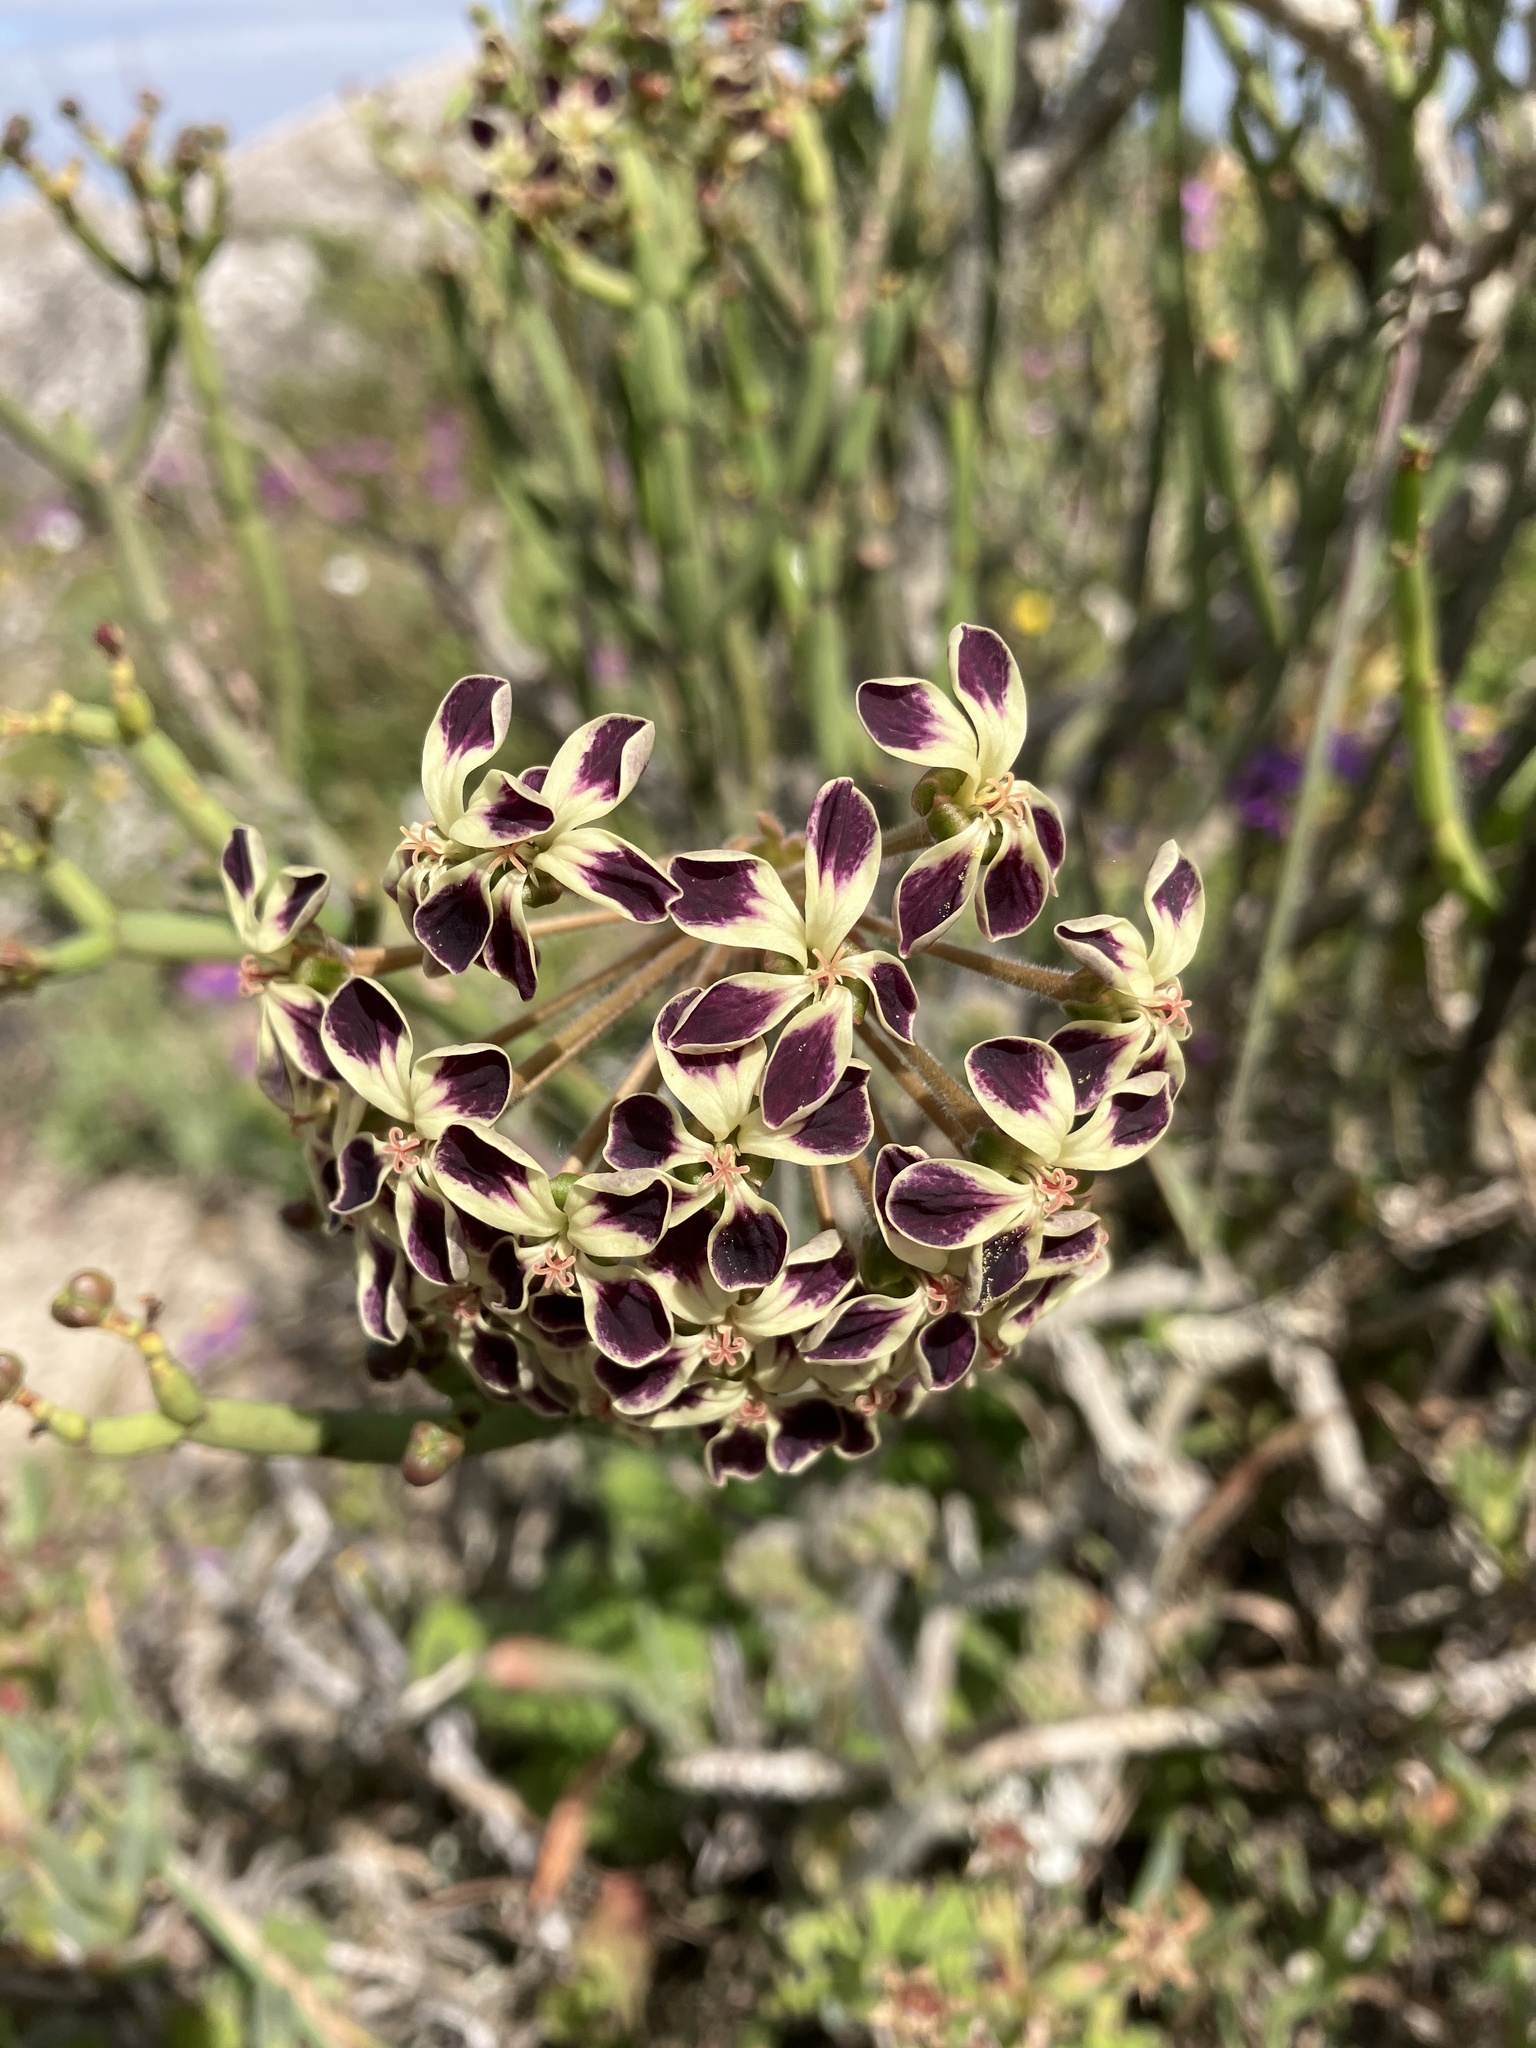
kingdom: Plantae
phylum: Tracheophyta
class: Magnoliopsida
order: Geraniales
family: Geraniaceae
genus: Pelargonium
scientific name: Pelargonium lobatum
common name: Vine-leaf pelargonium
